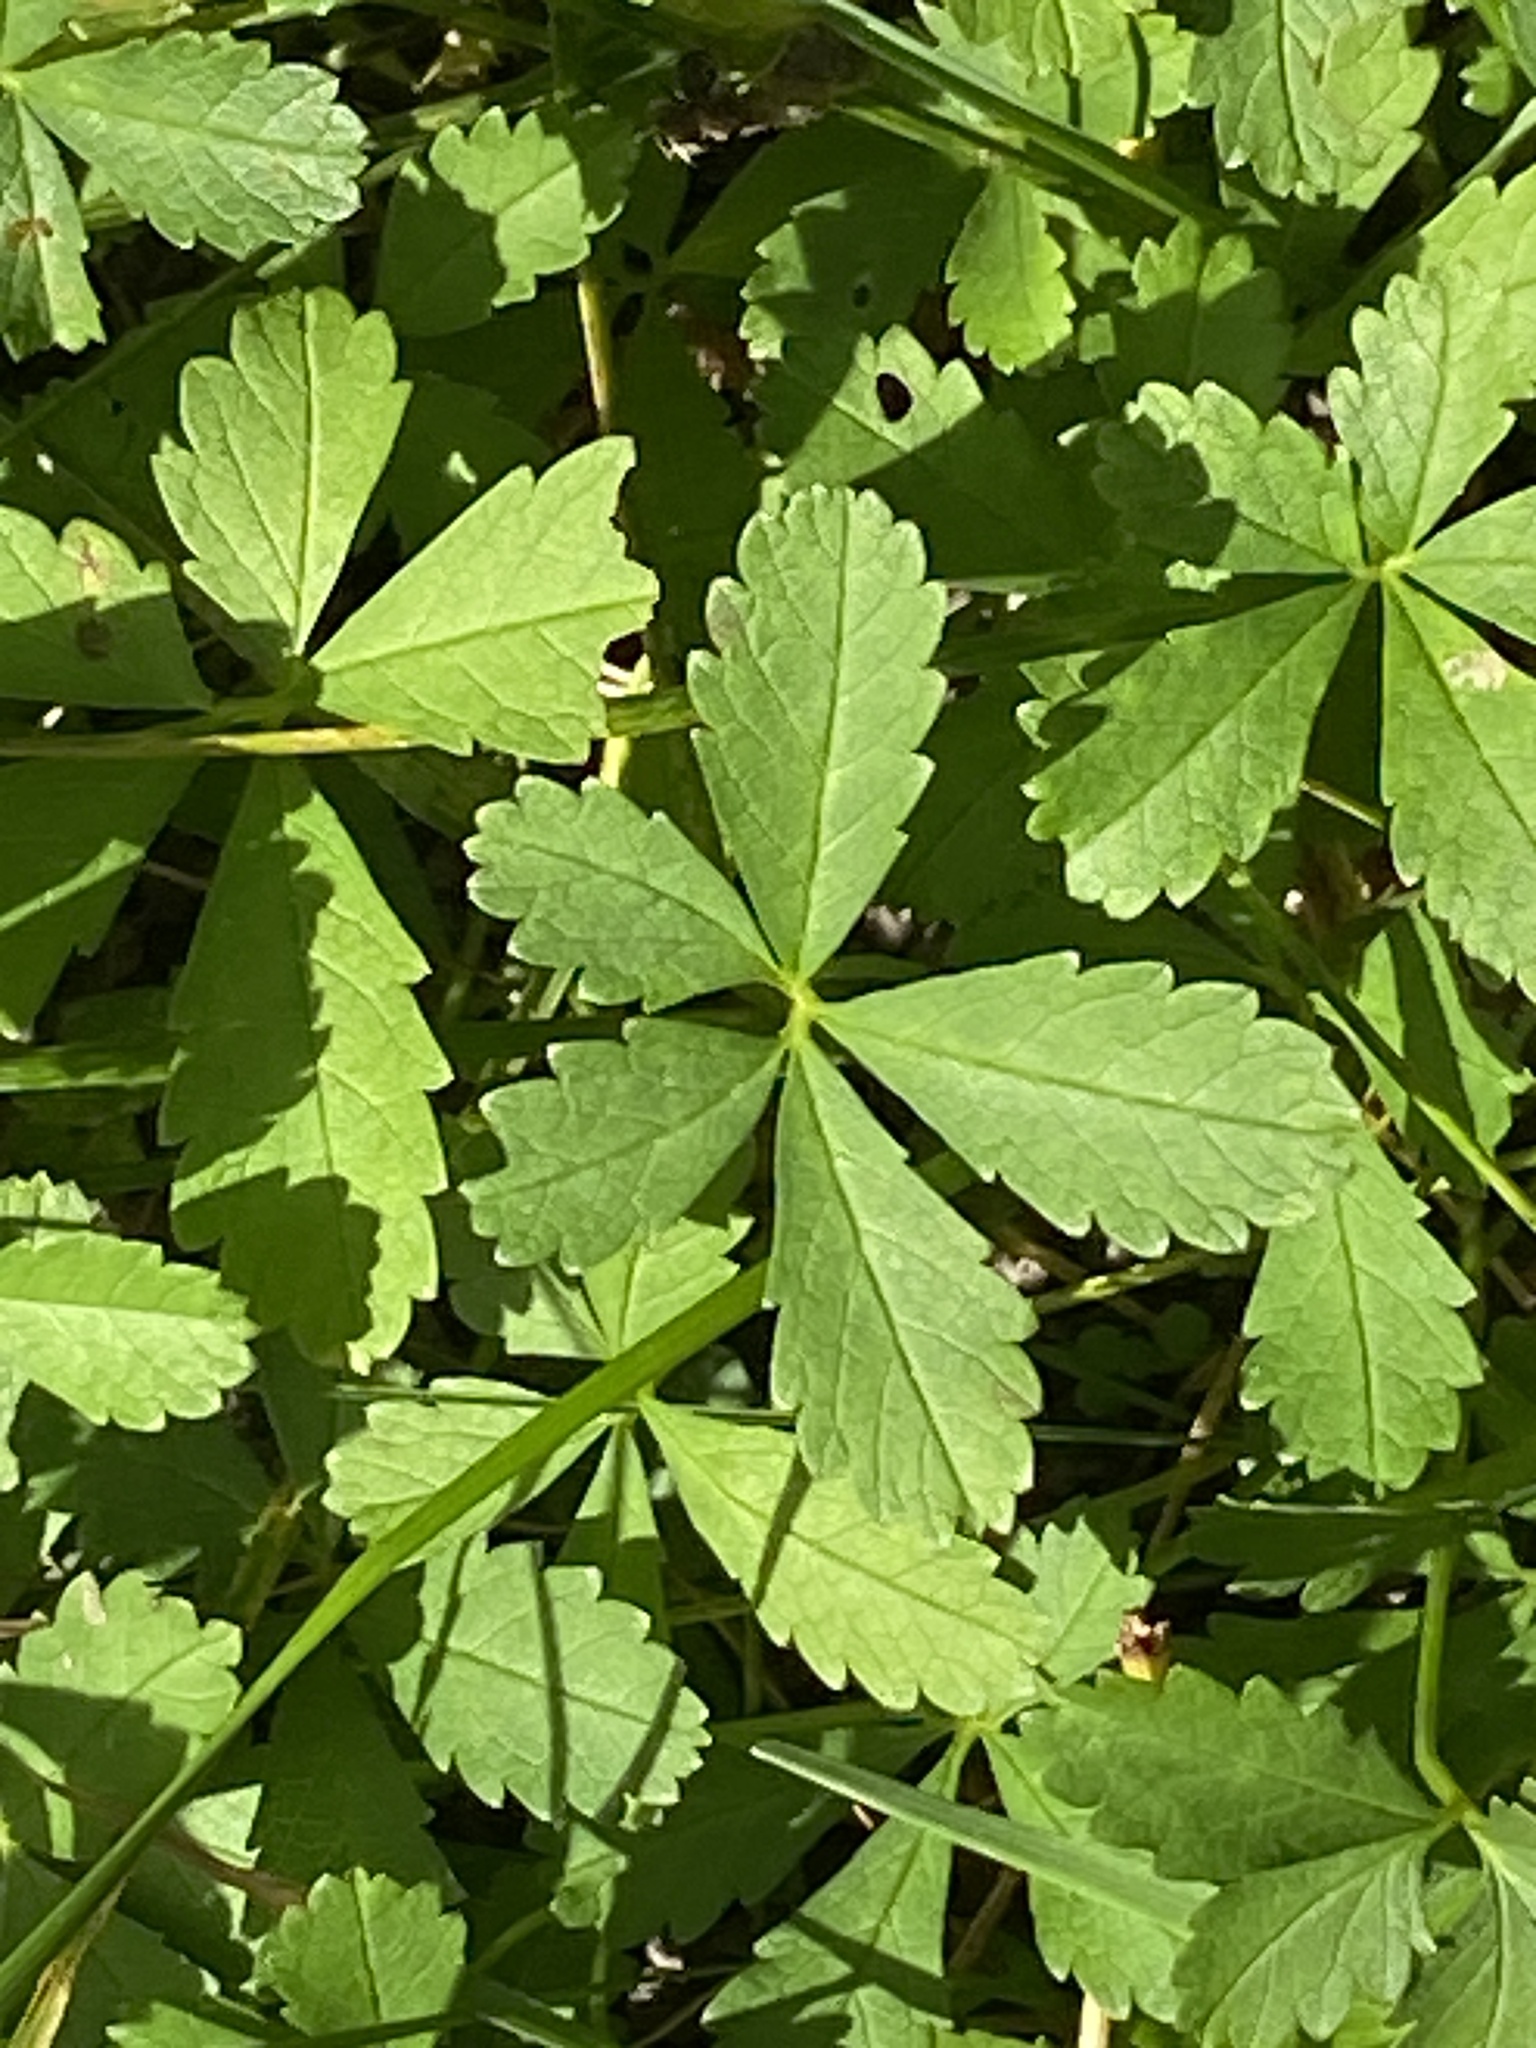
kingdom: Plantae
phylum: Tracheophyta
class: Magnoliopsida
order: Rosales
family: Rosaceae
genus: Potentilla
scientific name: Potentilla reptans
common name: Creeping cinquefoil
